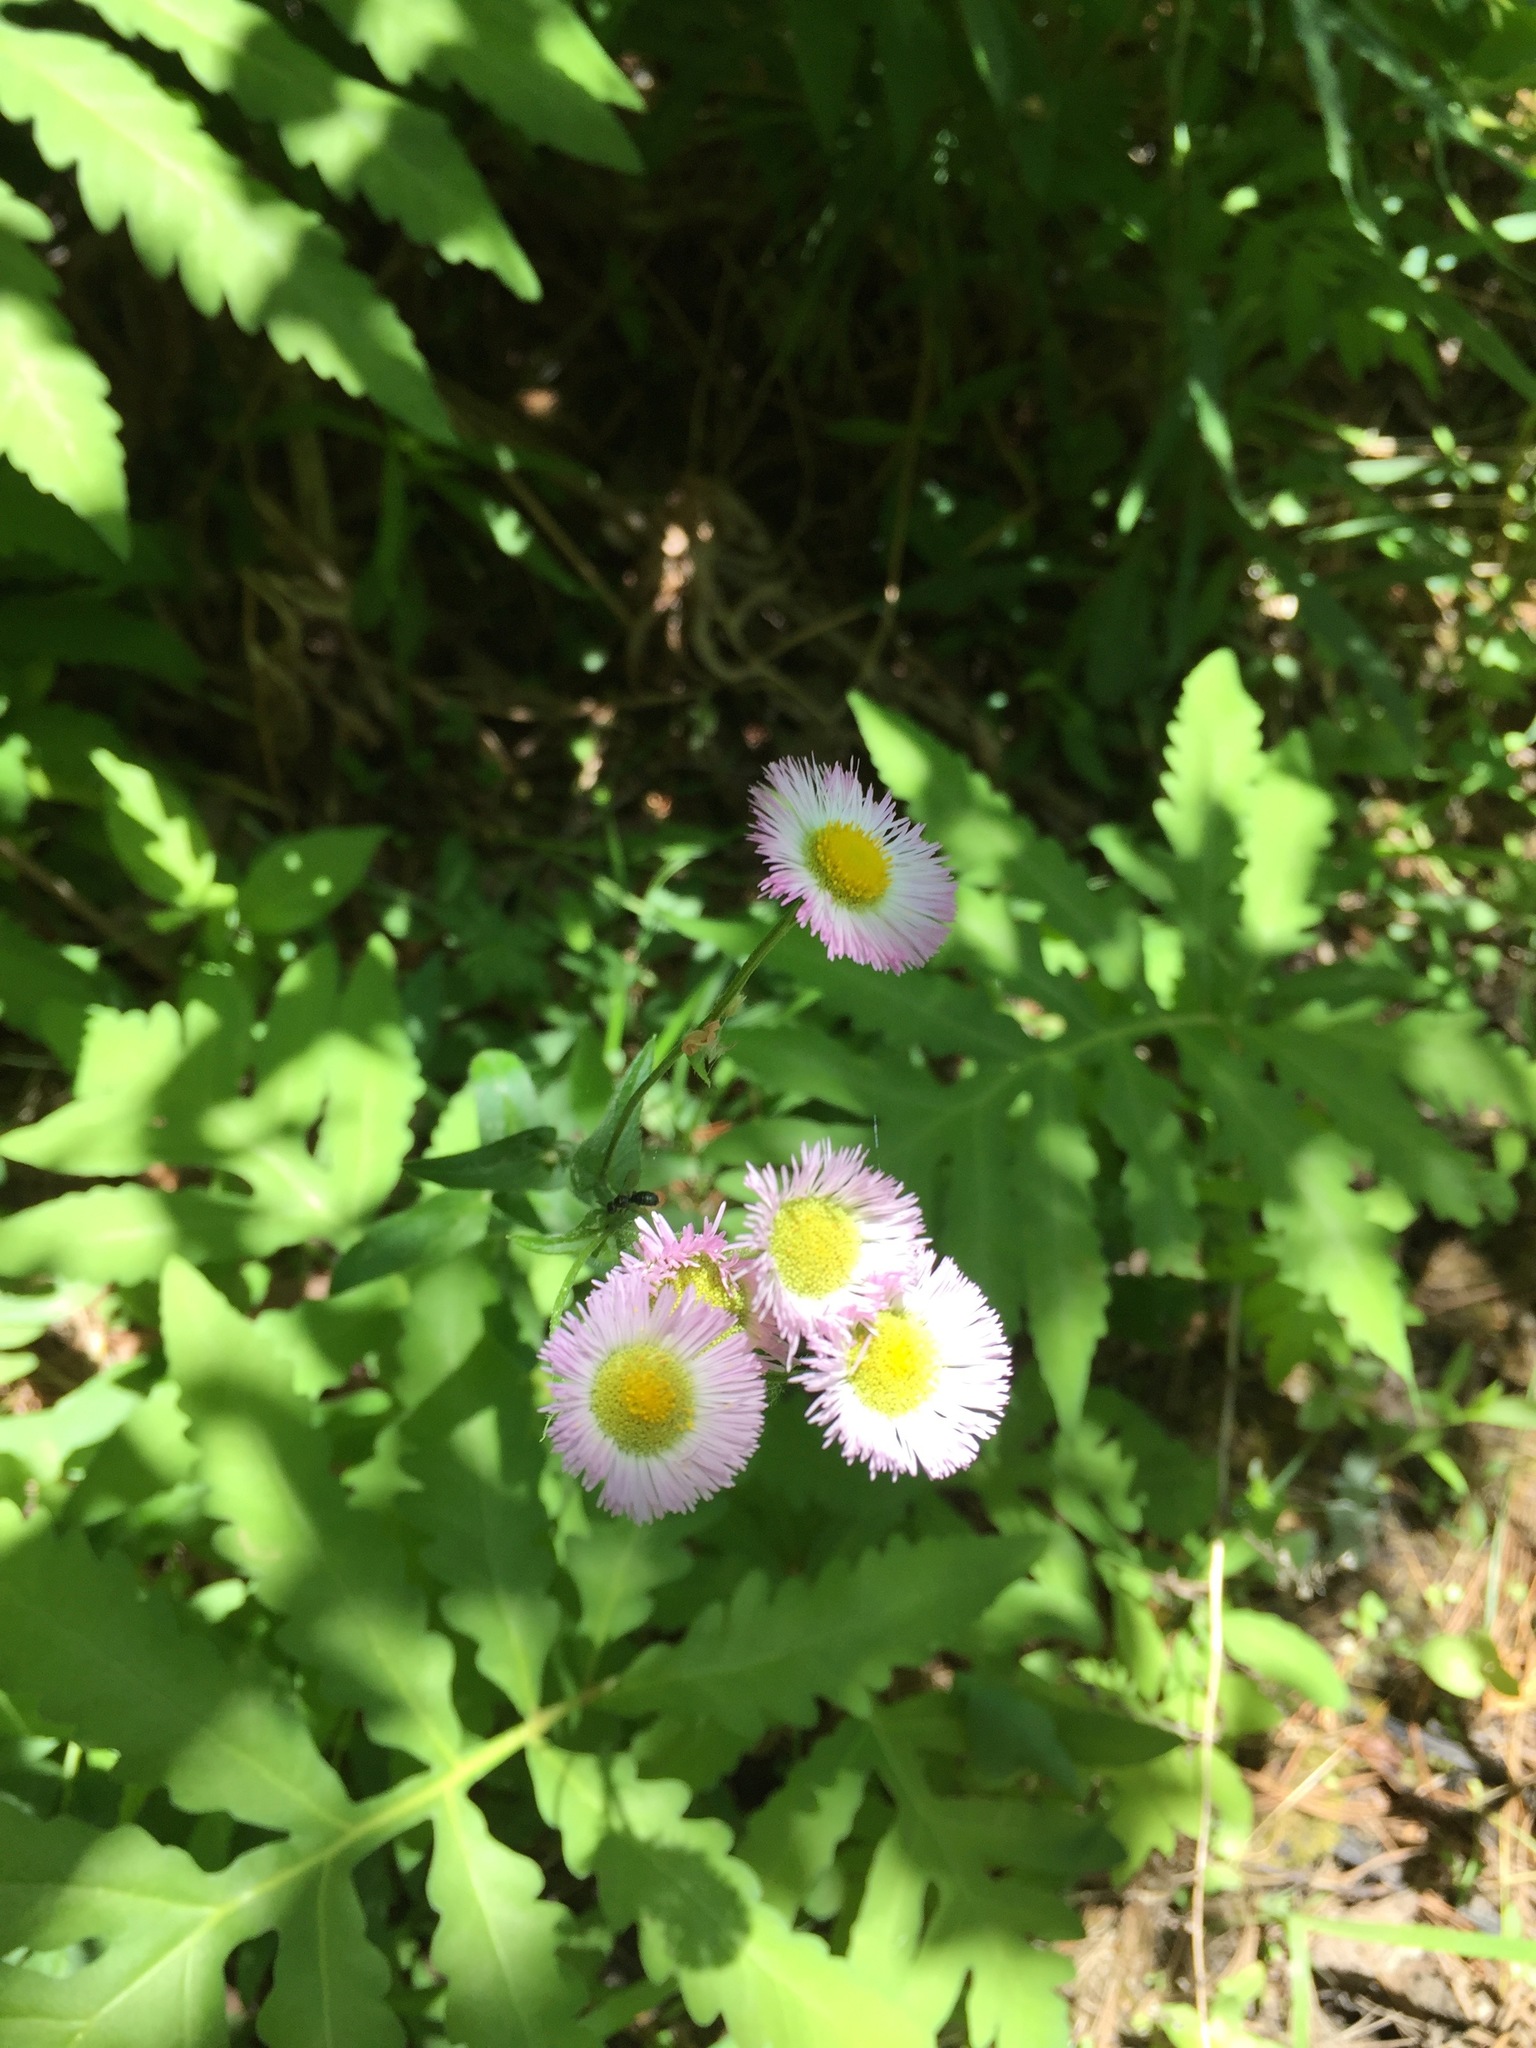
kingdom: Plantae
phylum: Tracheophyta
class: Magnoliopsida
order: Asterales
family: Asteraceae
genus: Erigeron
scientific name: Erigeron philadelphicus
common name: Robin's-plantain
